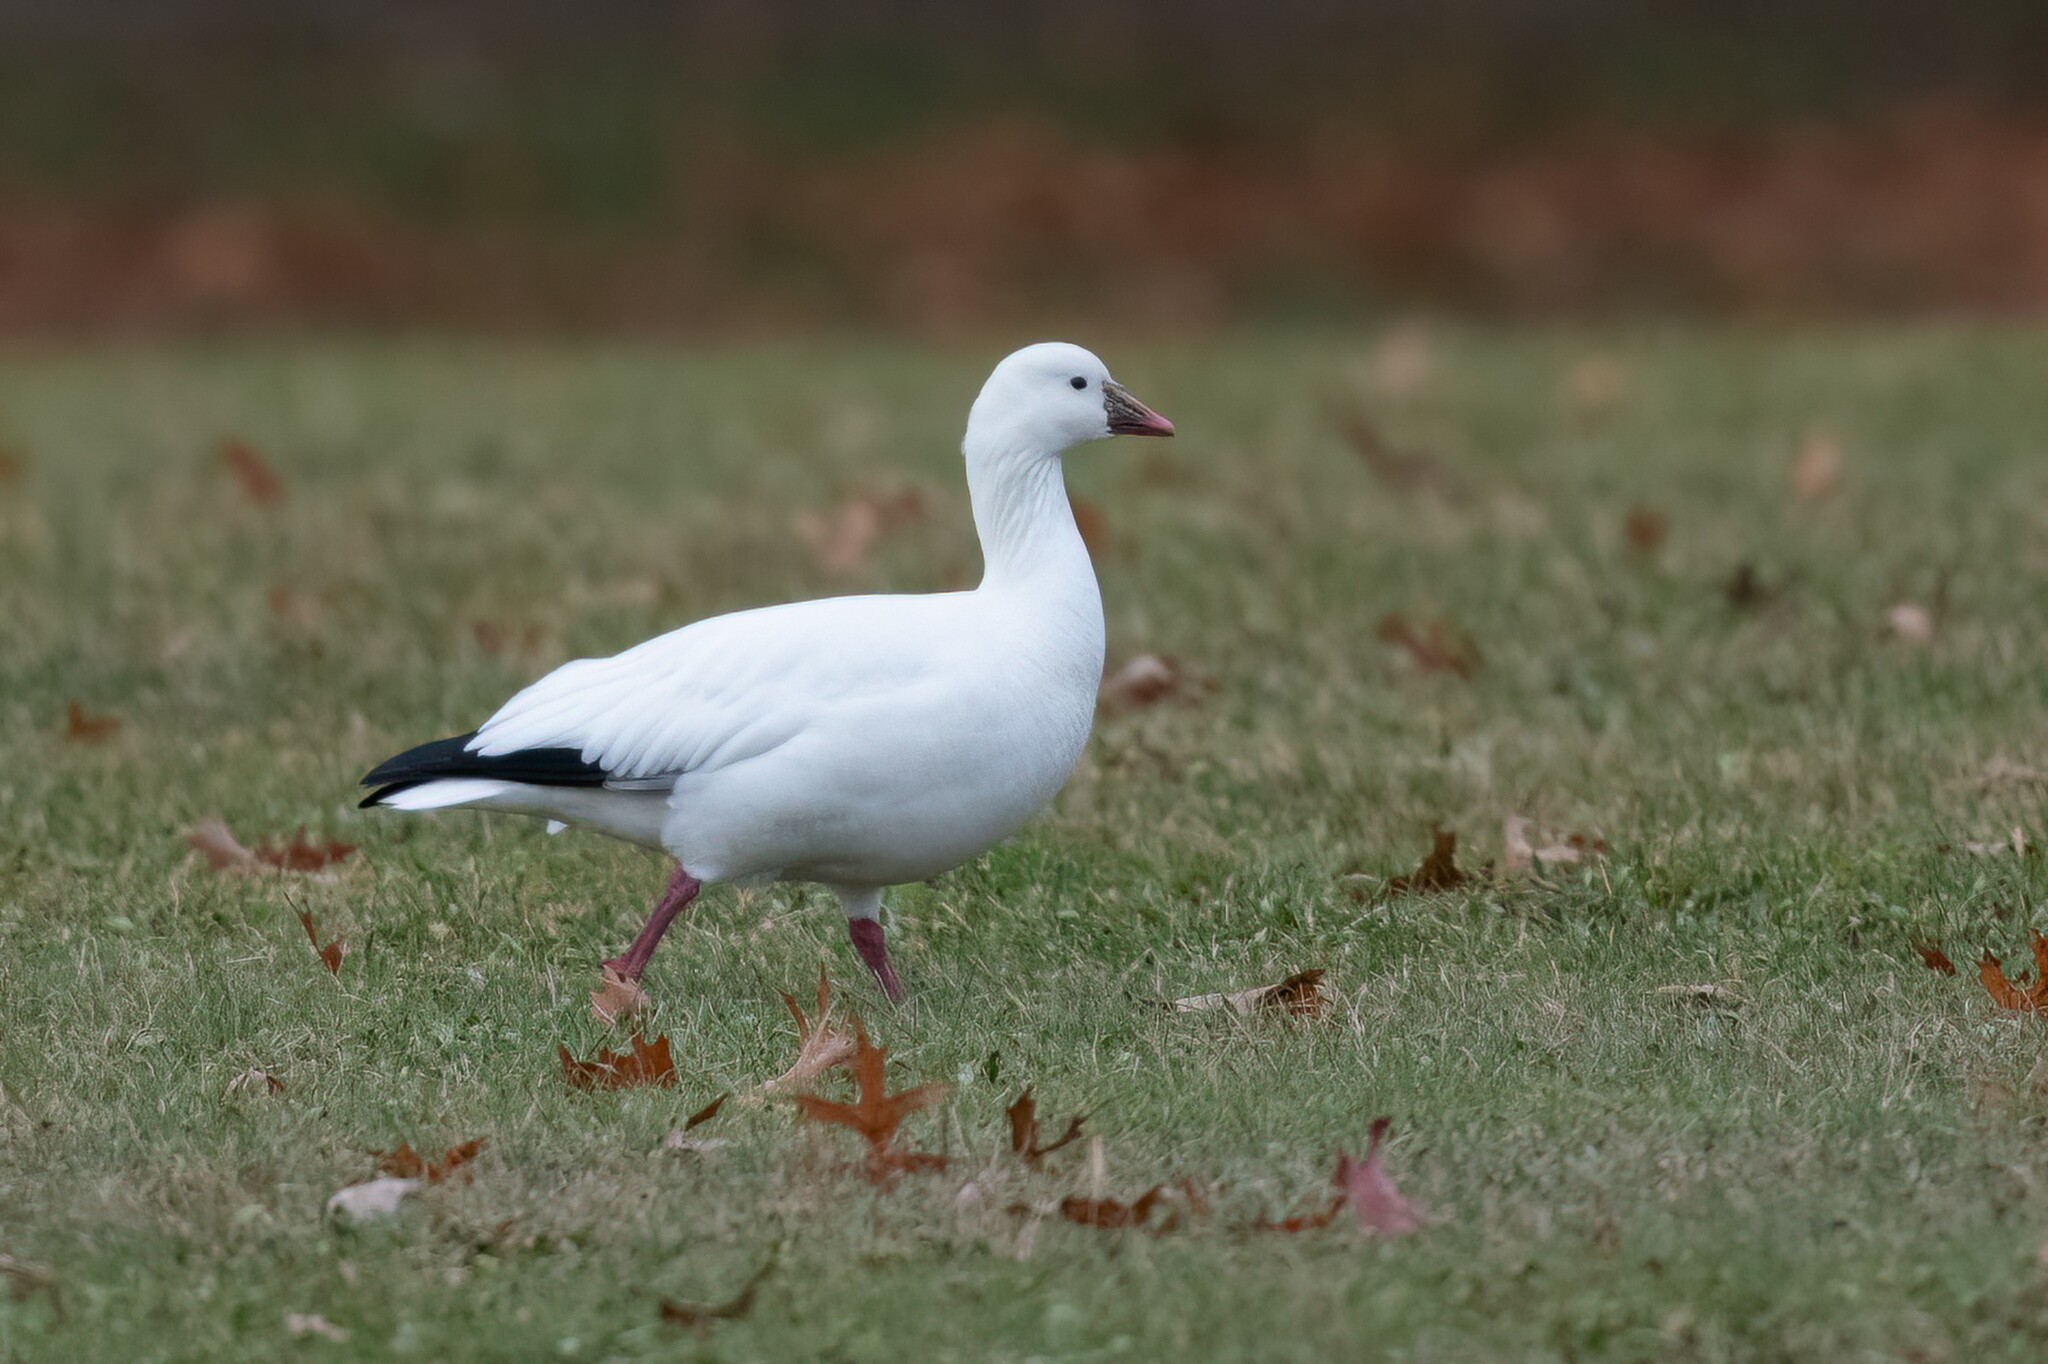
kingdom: Animalia
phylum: Chordata
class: Aves
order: Anseriformes
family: Anatidae
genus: Anser
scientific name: Anser rossii
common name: Ross's goose
